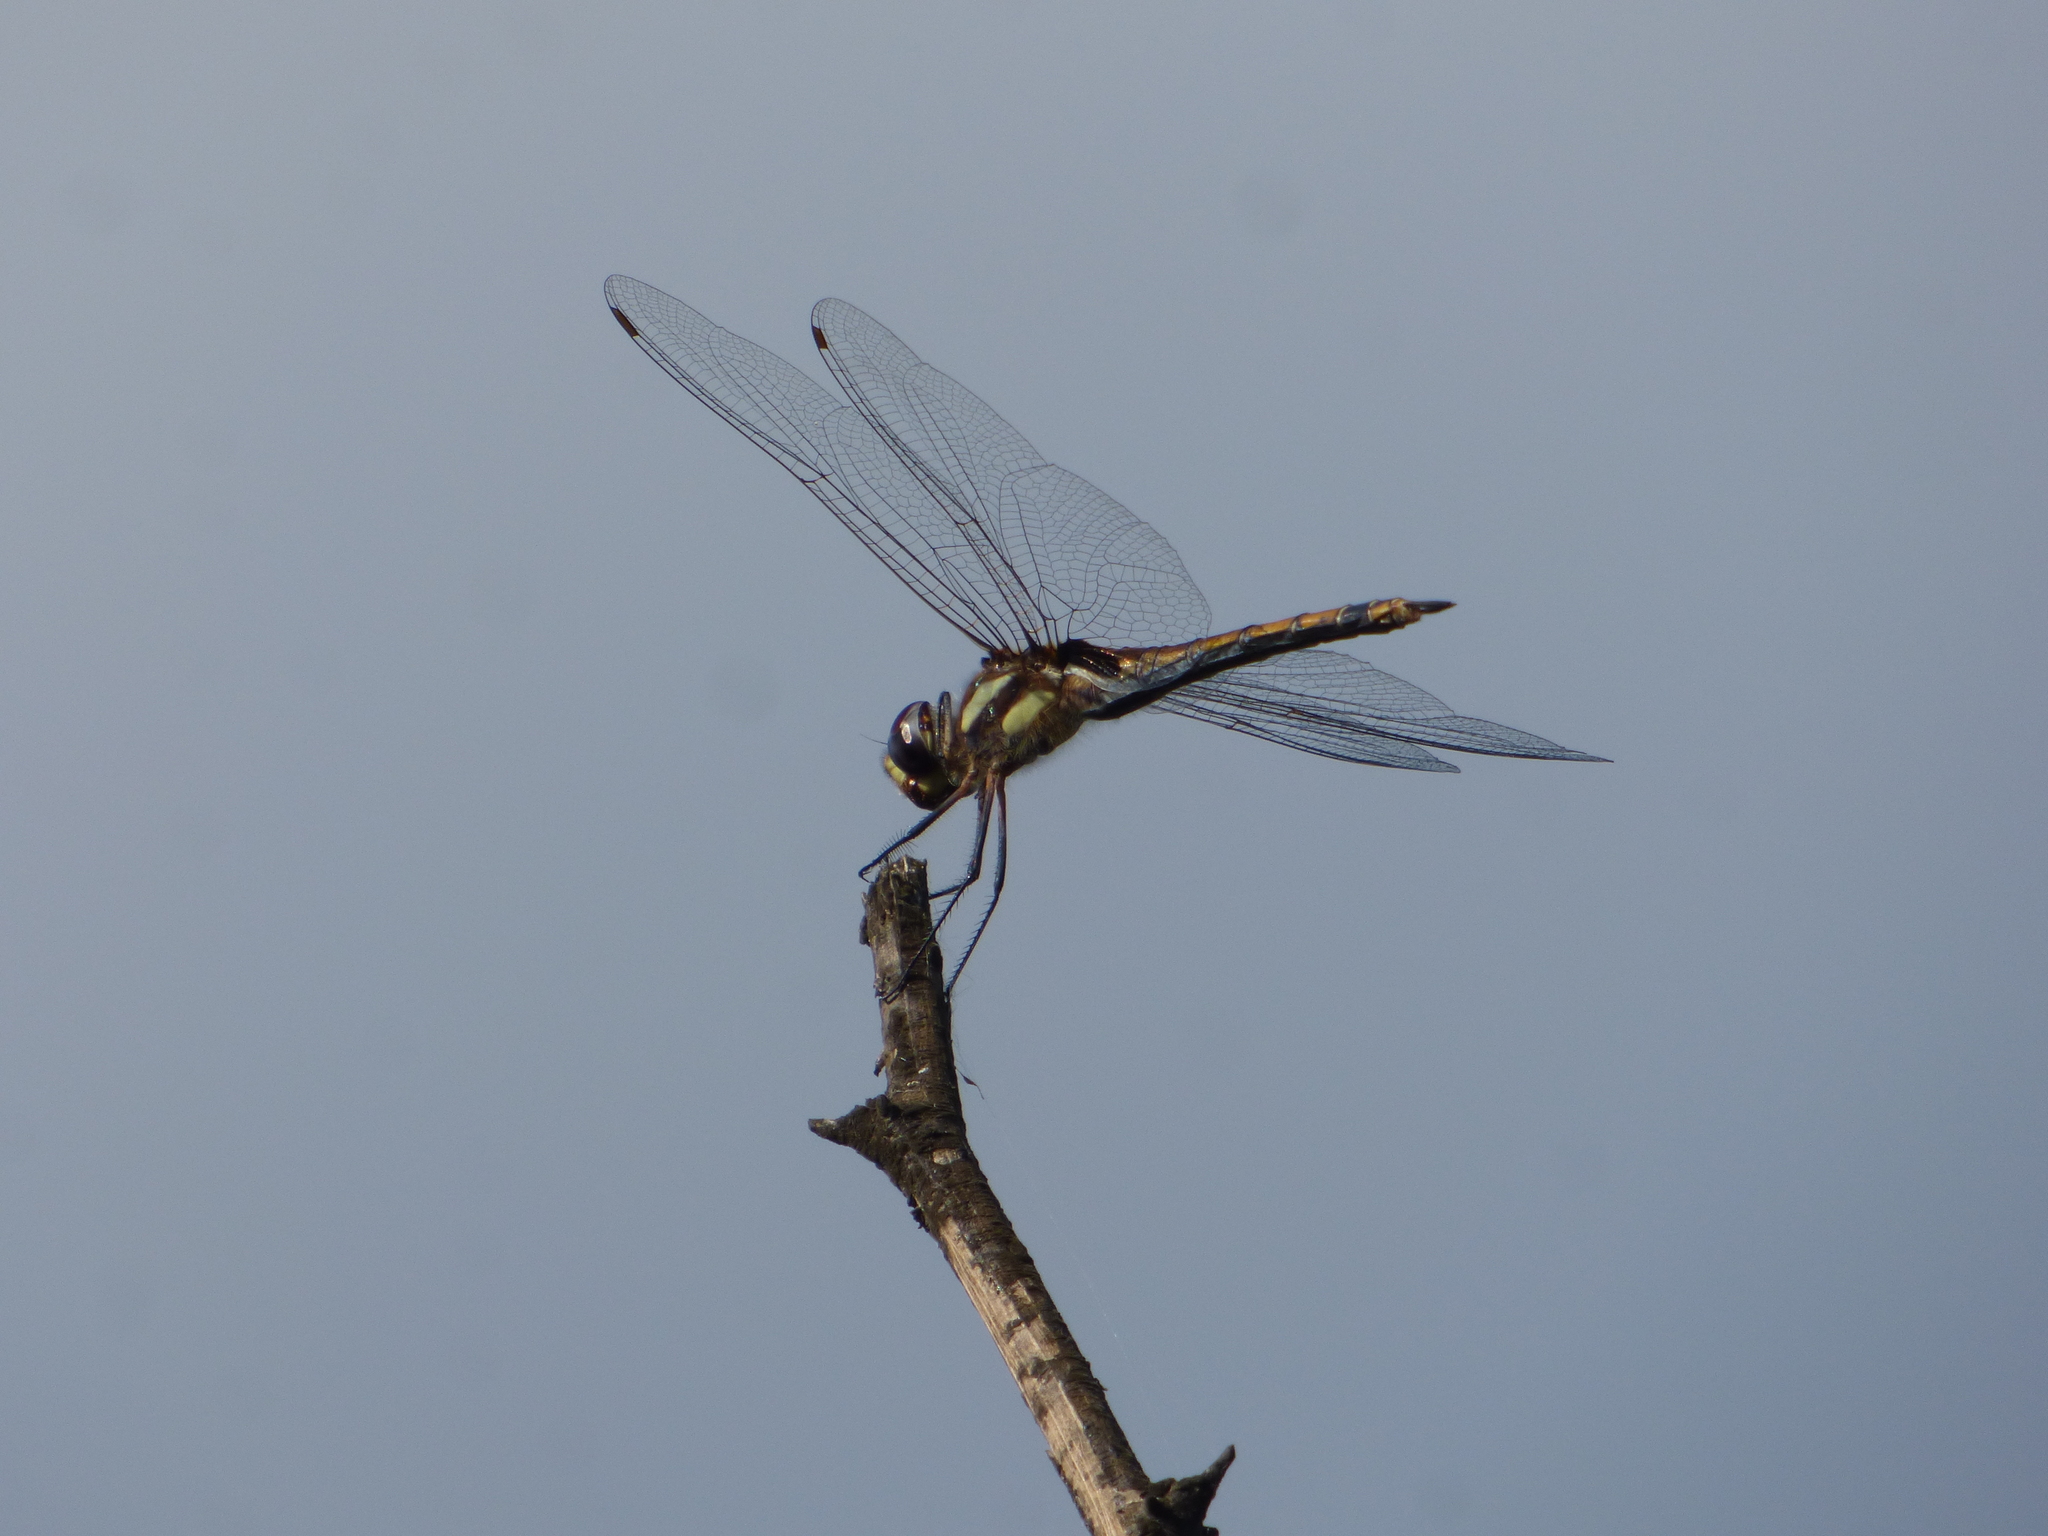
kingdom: Animalia
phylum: Arthropoda
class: Insecta
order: Odonata
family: Libellulidae
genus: Tramea
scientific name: Tramea cophysa
